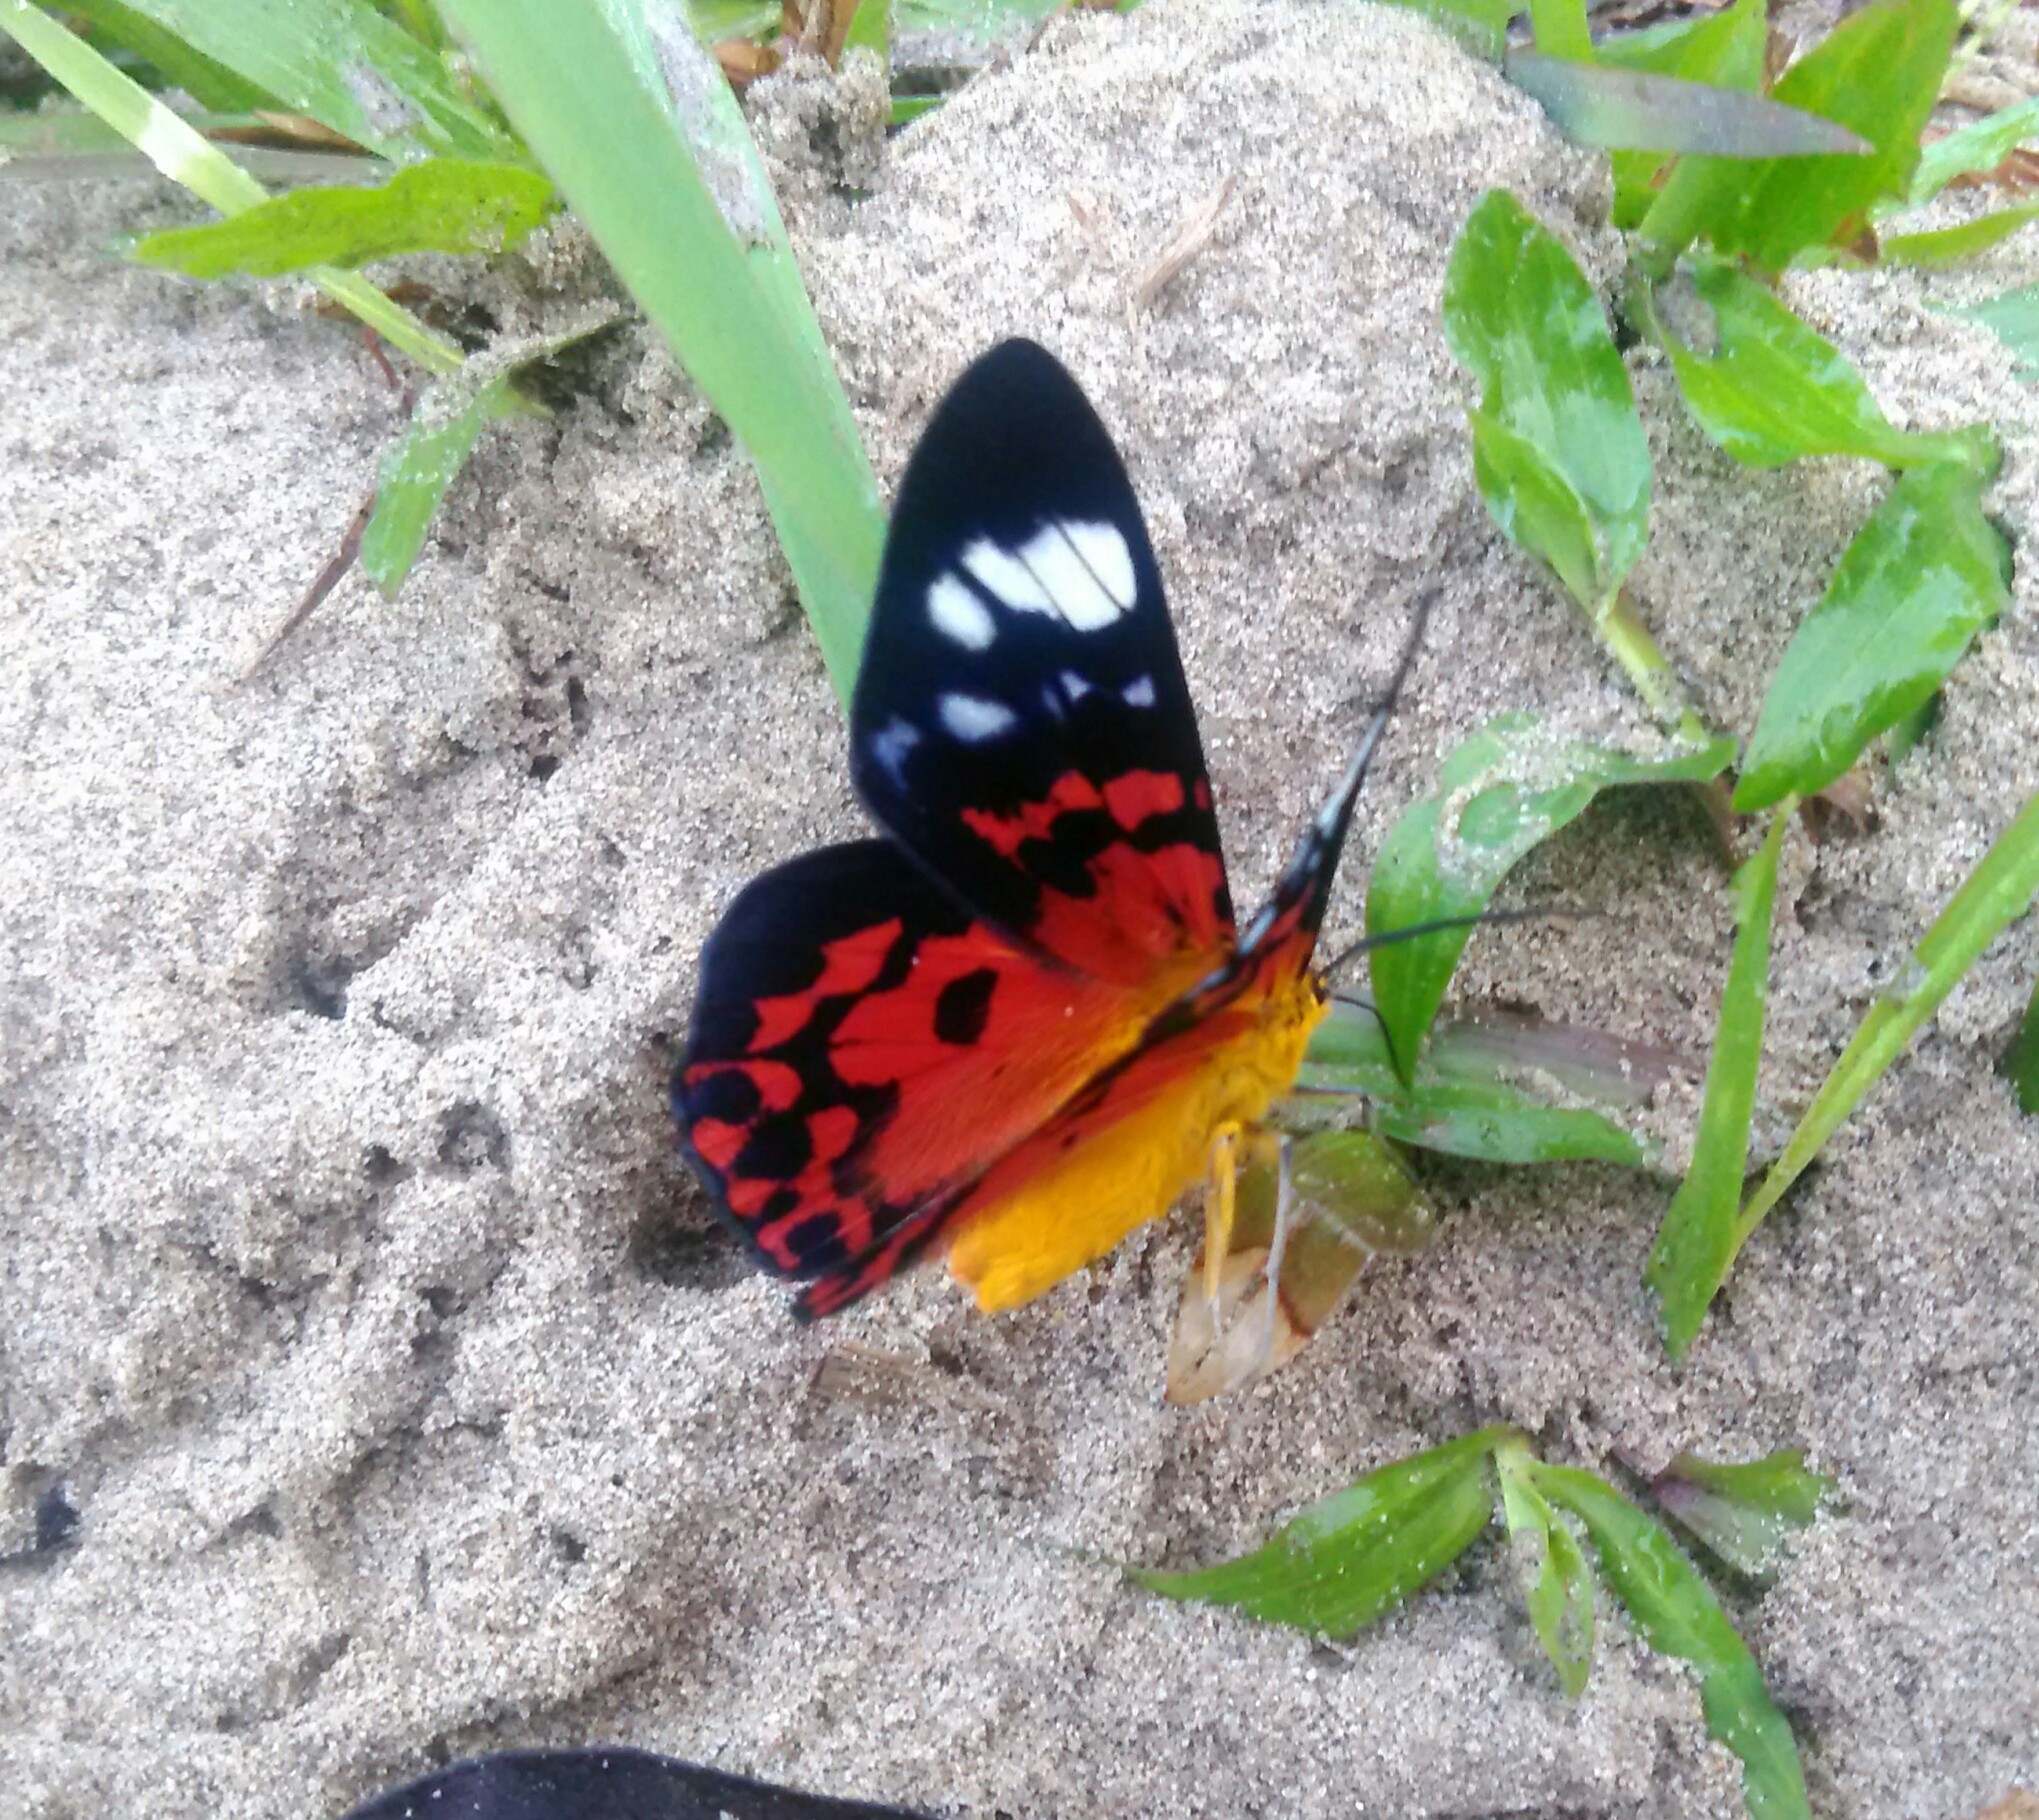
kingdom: Animalia
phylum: Arthropoda
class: Insecta
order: Lepidoptera
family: Geometridae
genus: Dysphania
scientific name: Dysphania cuprina
